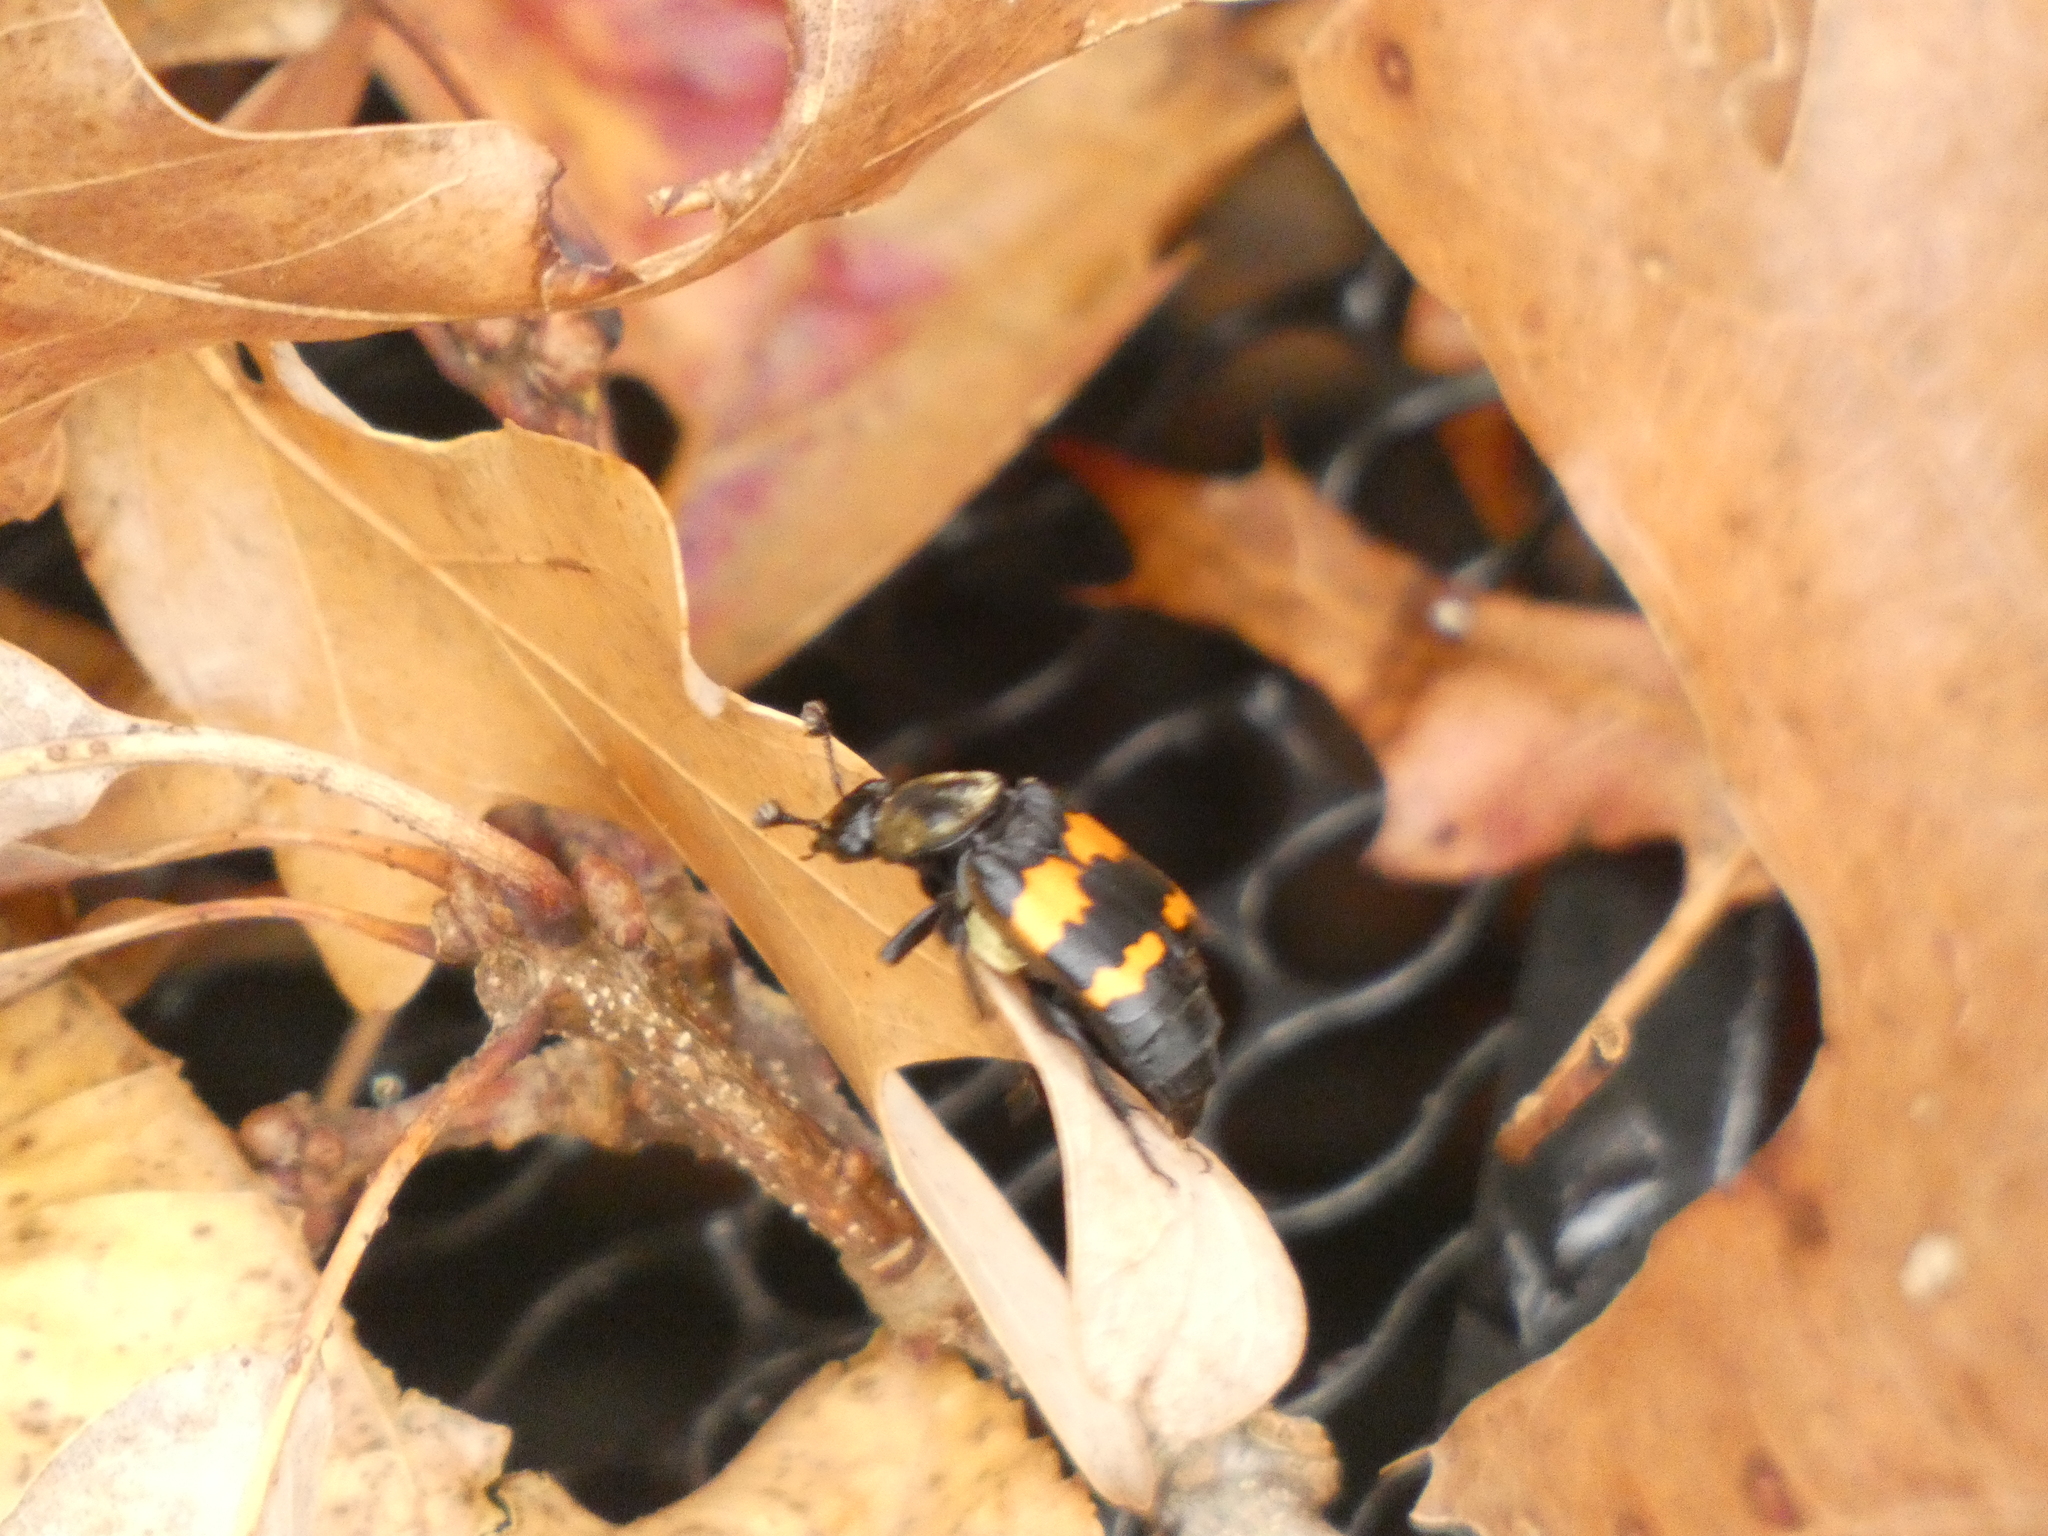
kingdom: Animalia
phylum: Arthropoda
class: Insecta
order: Coleoptera
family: Staphylinidae
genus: Nicrophorus
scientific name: Nicrophorus tomentosus
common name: Tomentose burying beetle
